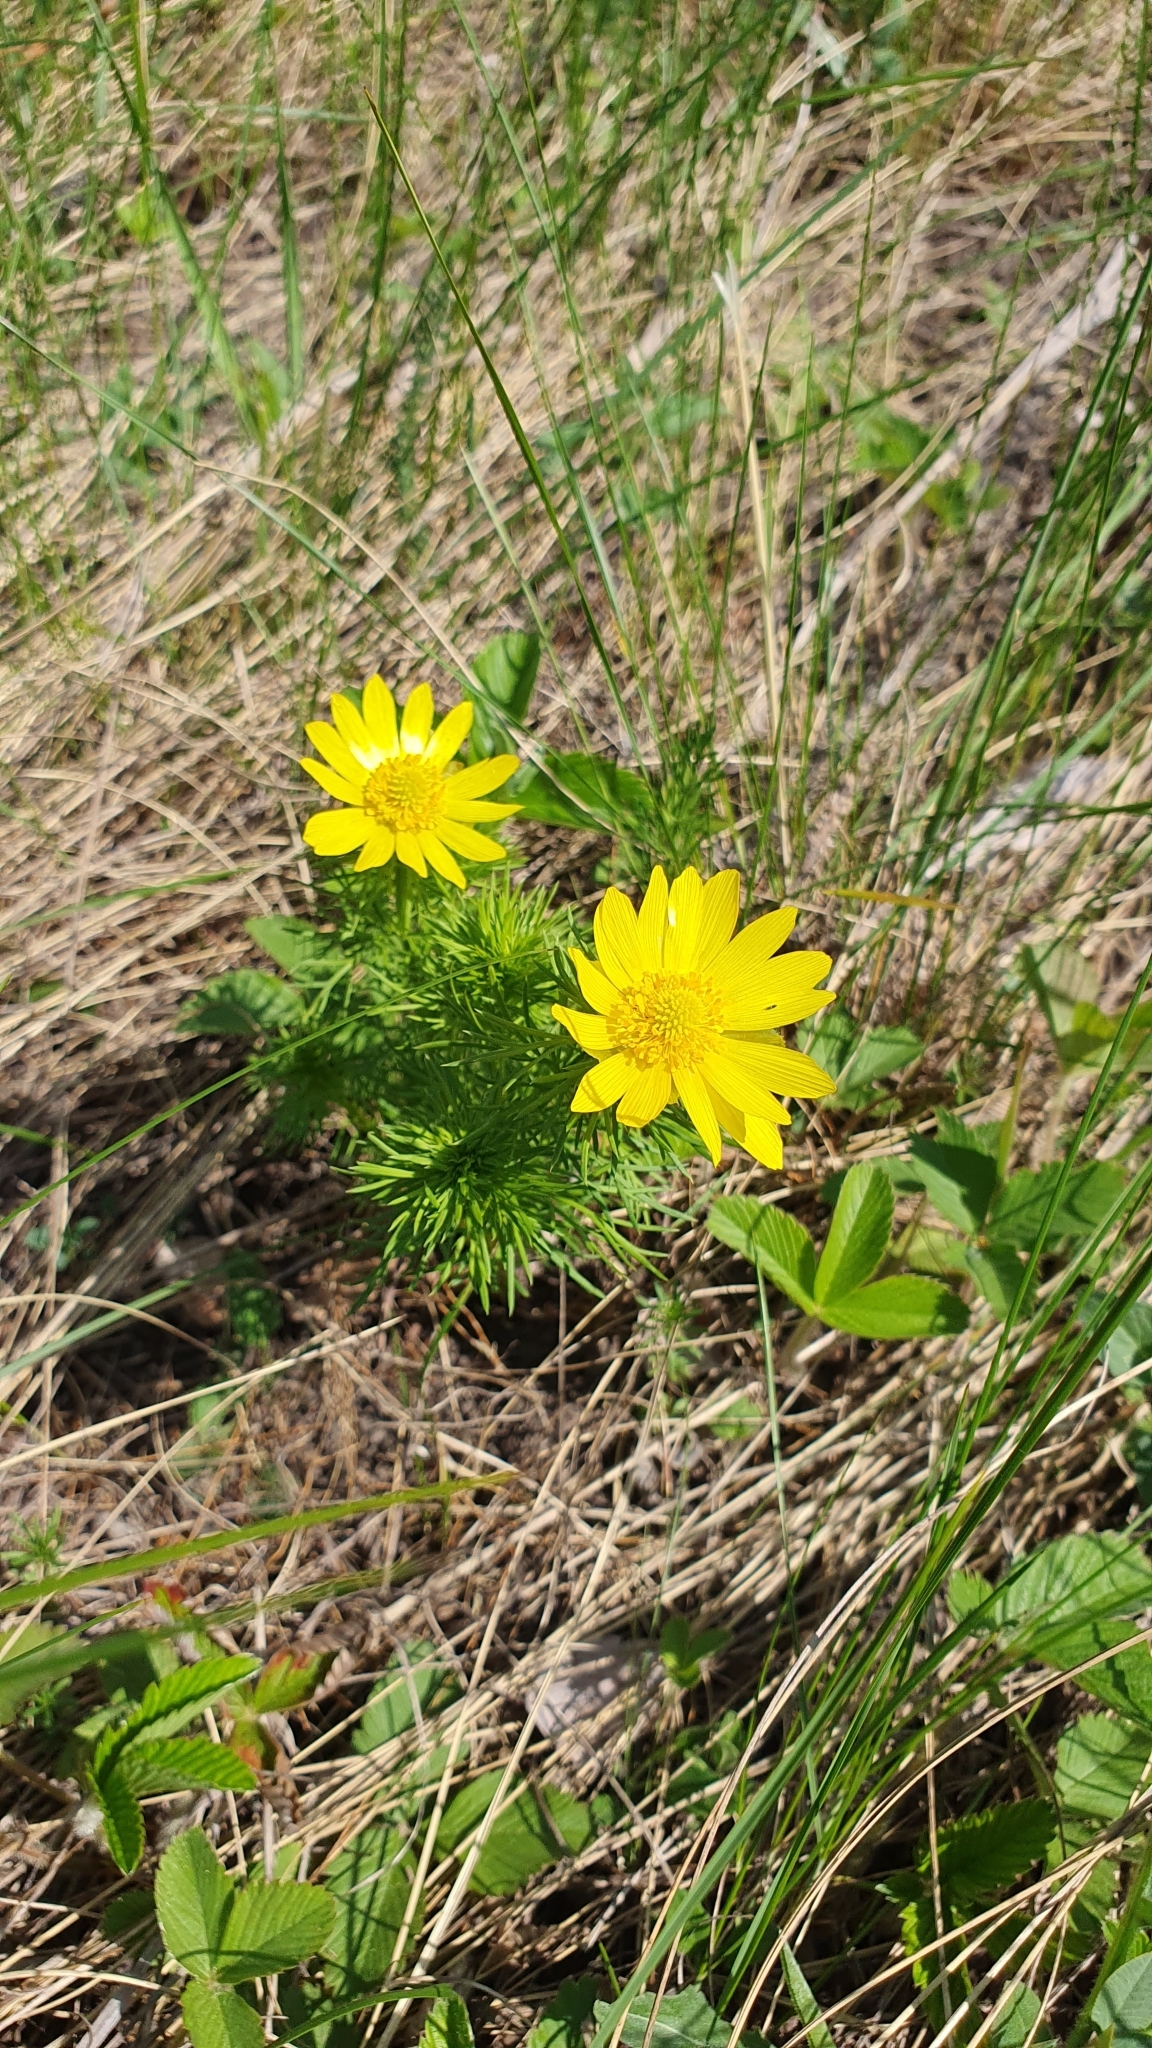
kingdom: Plantae
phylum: Tracheophyta
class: Magnoliopsida
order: Ranunculales
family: Ranunculaceae
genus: Adonis
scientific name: Adonis vernalis
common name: Yellow pheasants-eye
